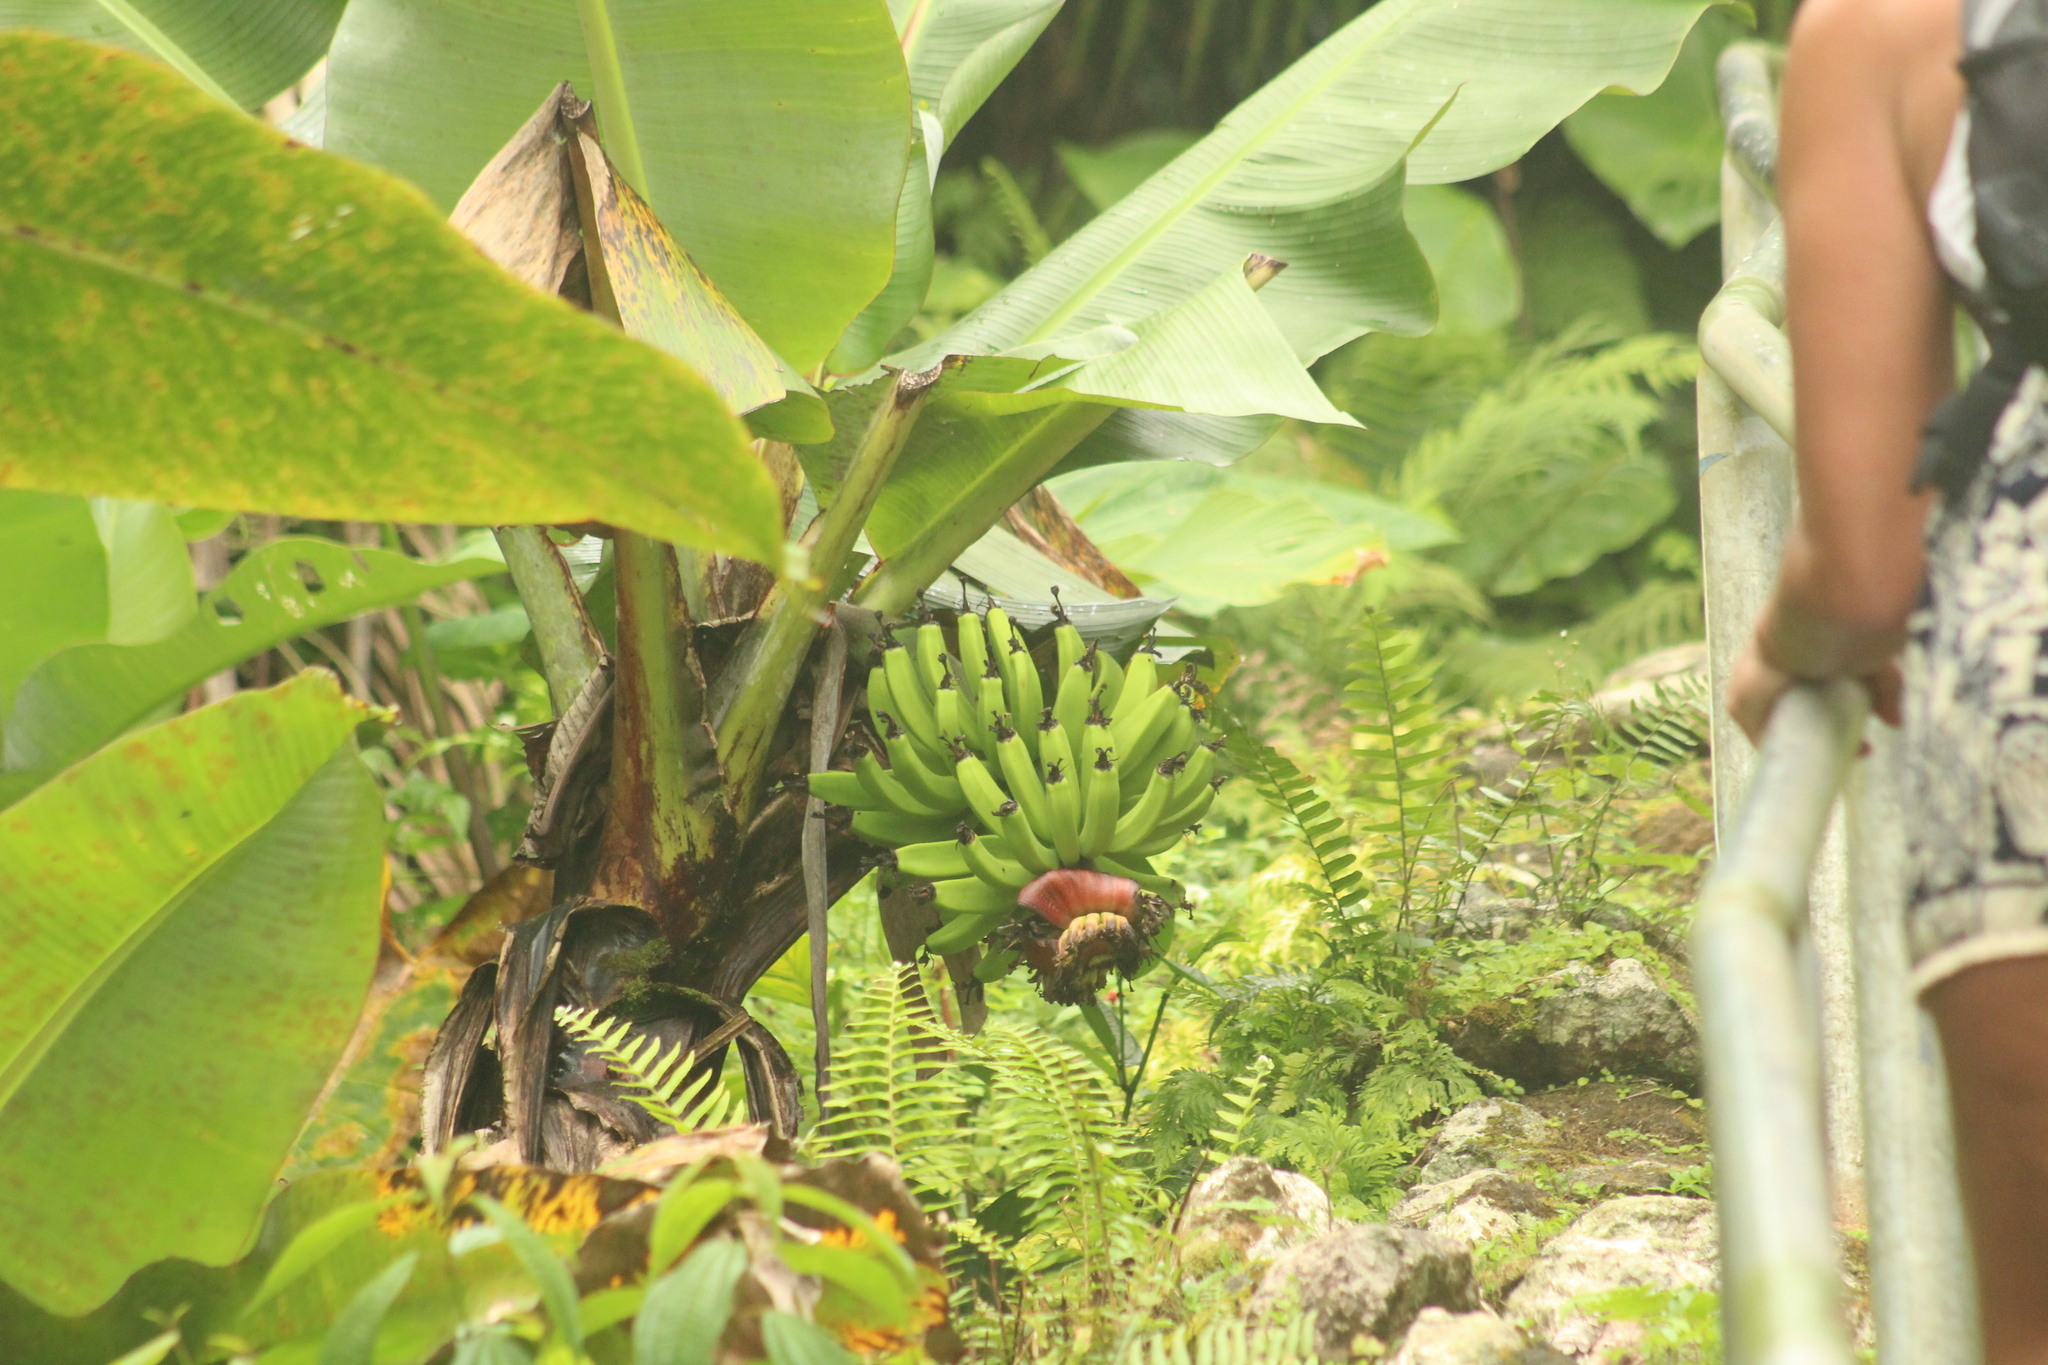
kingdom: Plantae
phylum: Tracheophyta
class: Liliopsida
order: Zingiberales
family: Musaceae
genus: Musa
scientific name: Musa acuminata
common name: Edible banana
